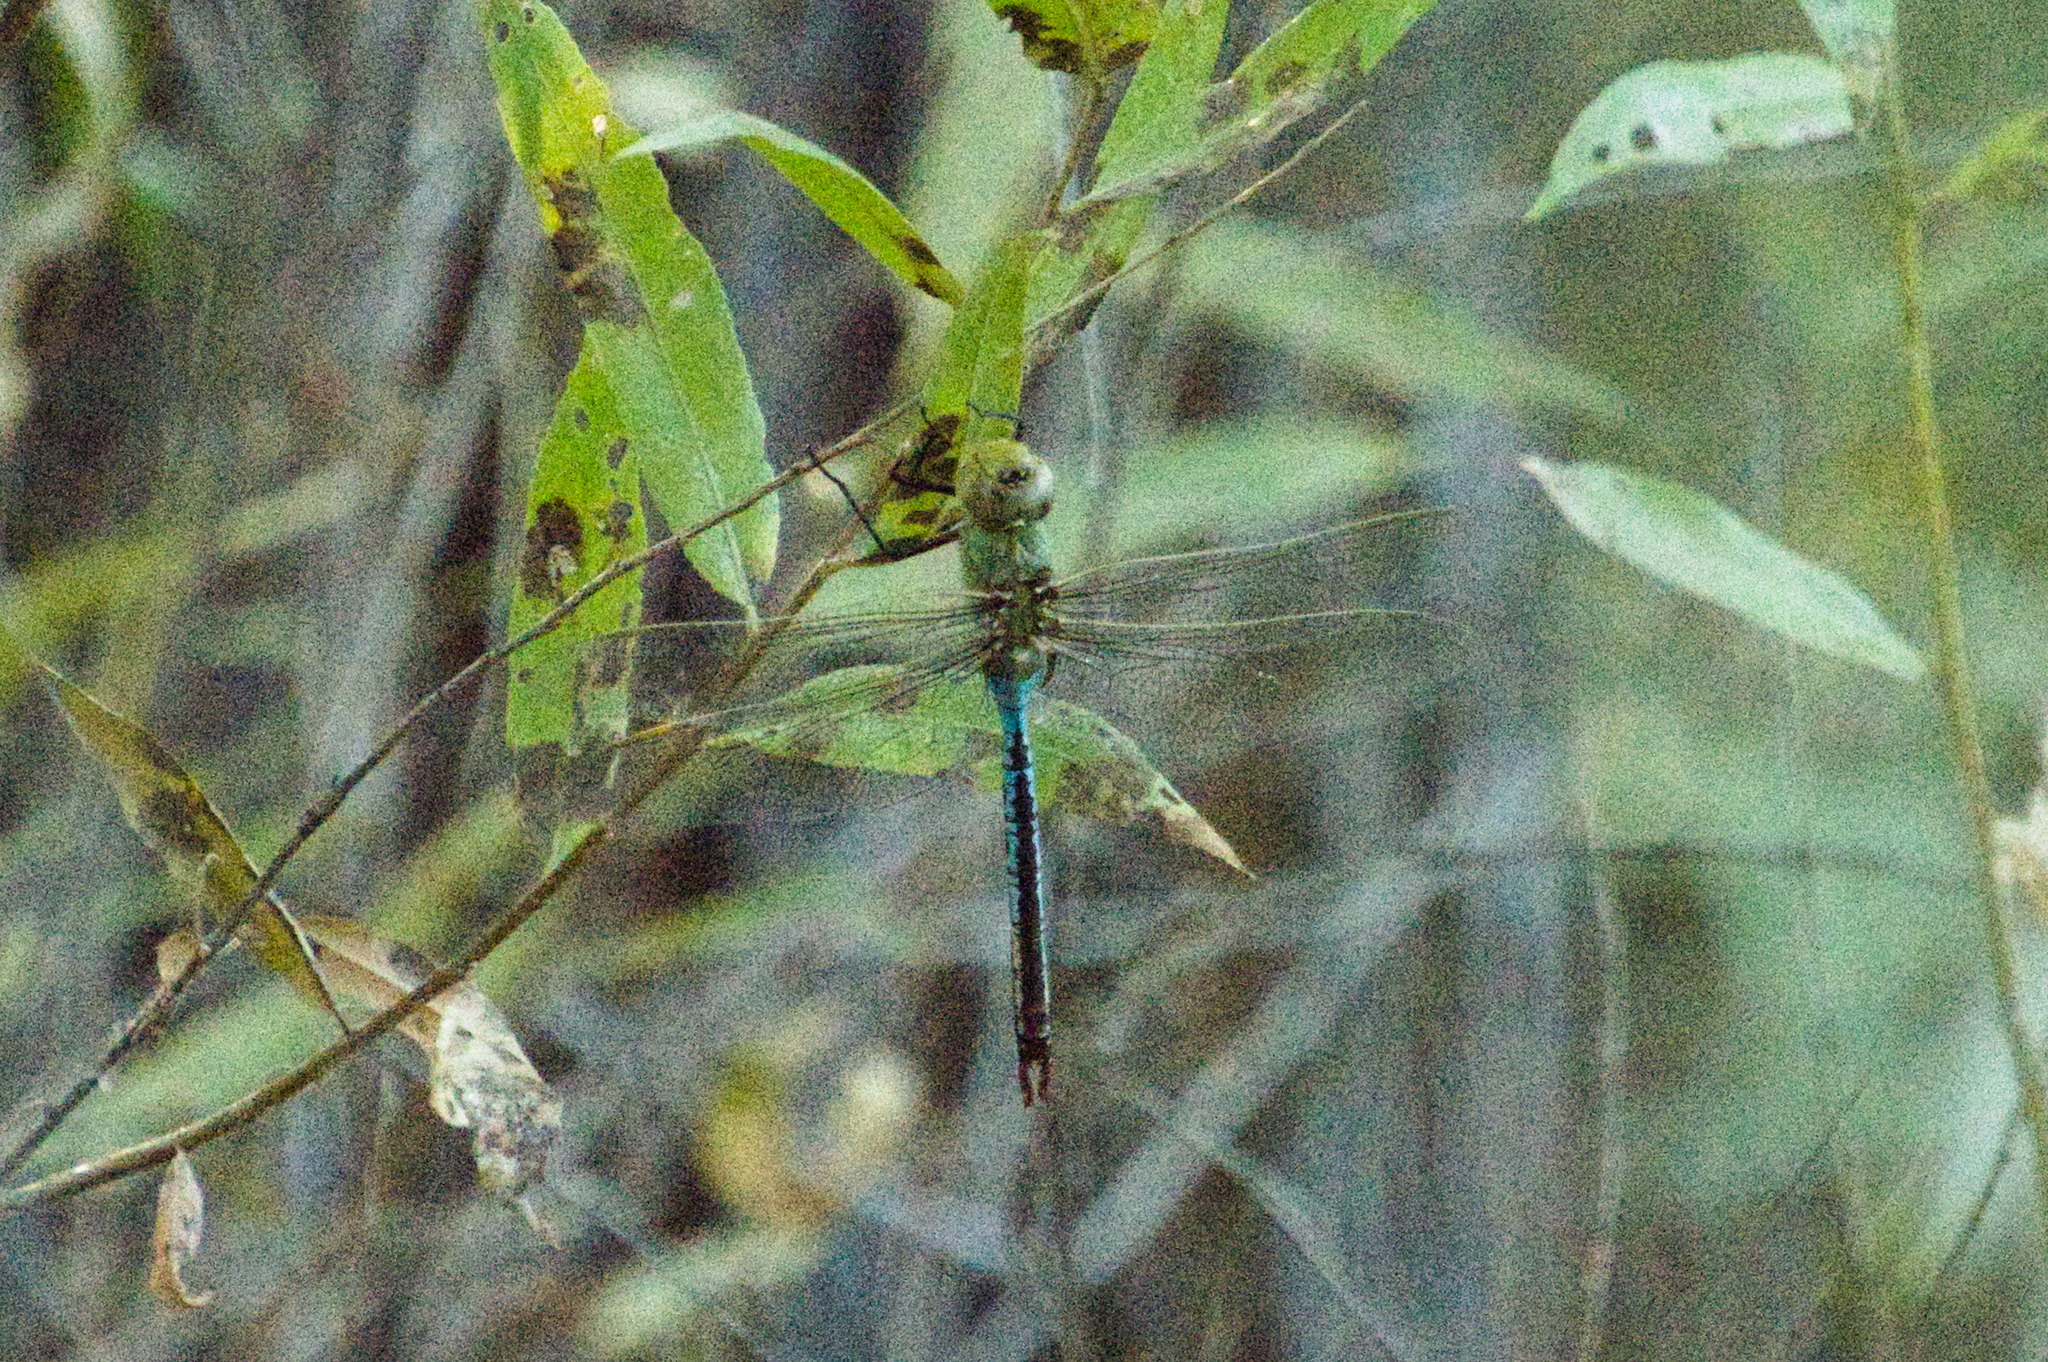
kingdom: Animalia
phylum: Arthropoda
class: Insecta
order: Odonata
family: Aeshnidae
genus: Anax
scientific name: Anax junius
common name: Common green darner
